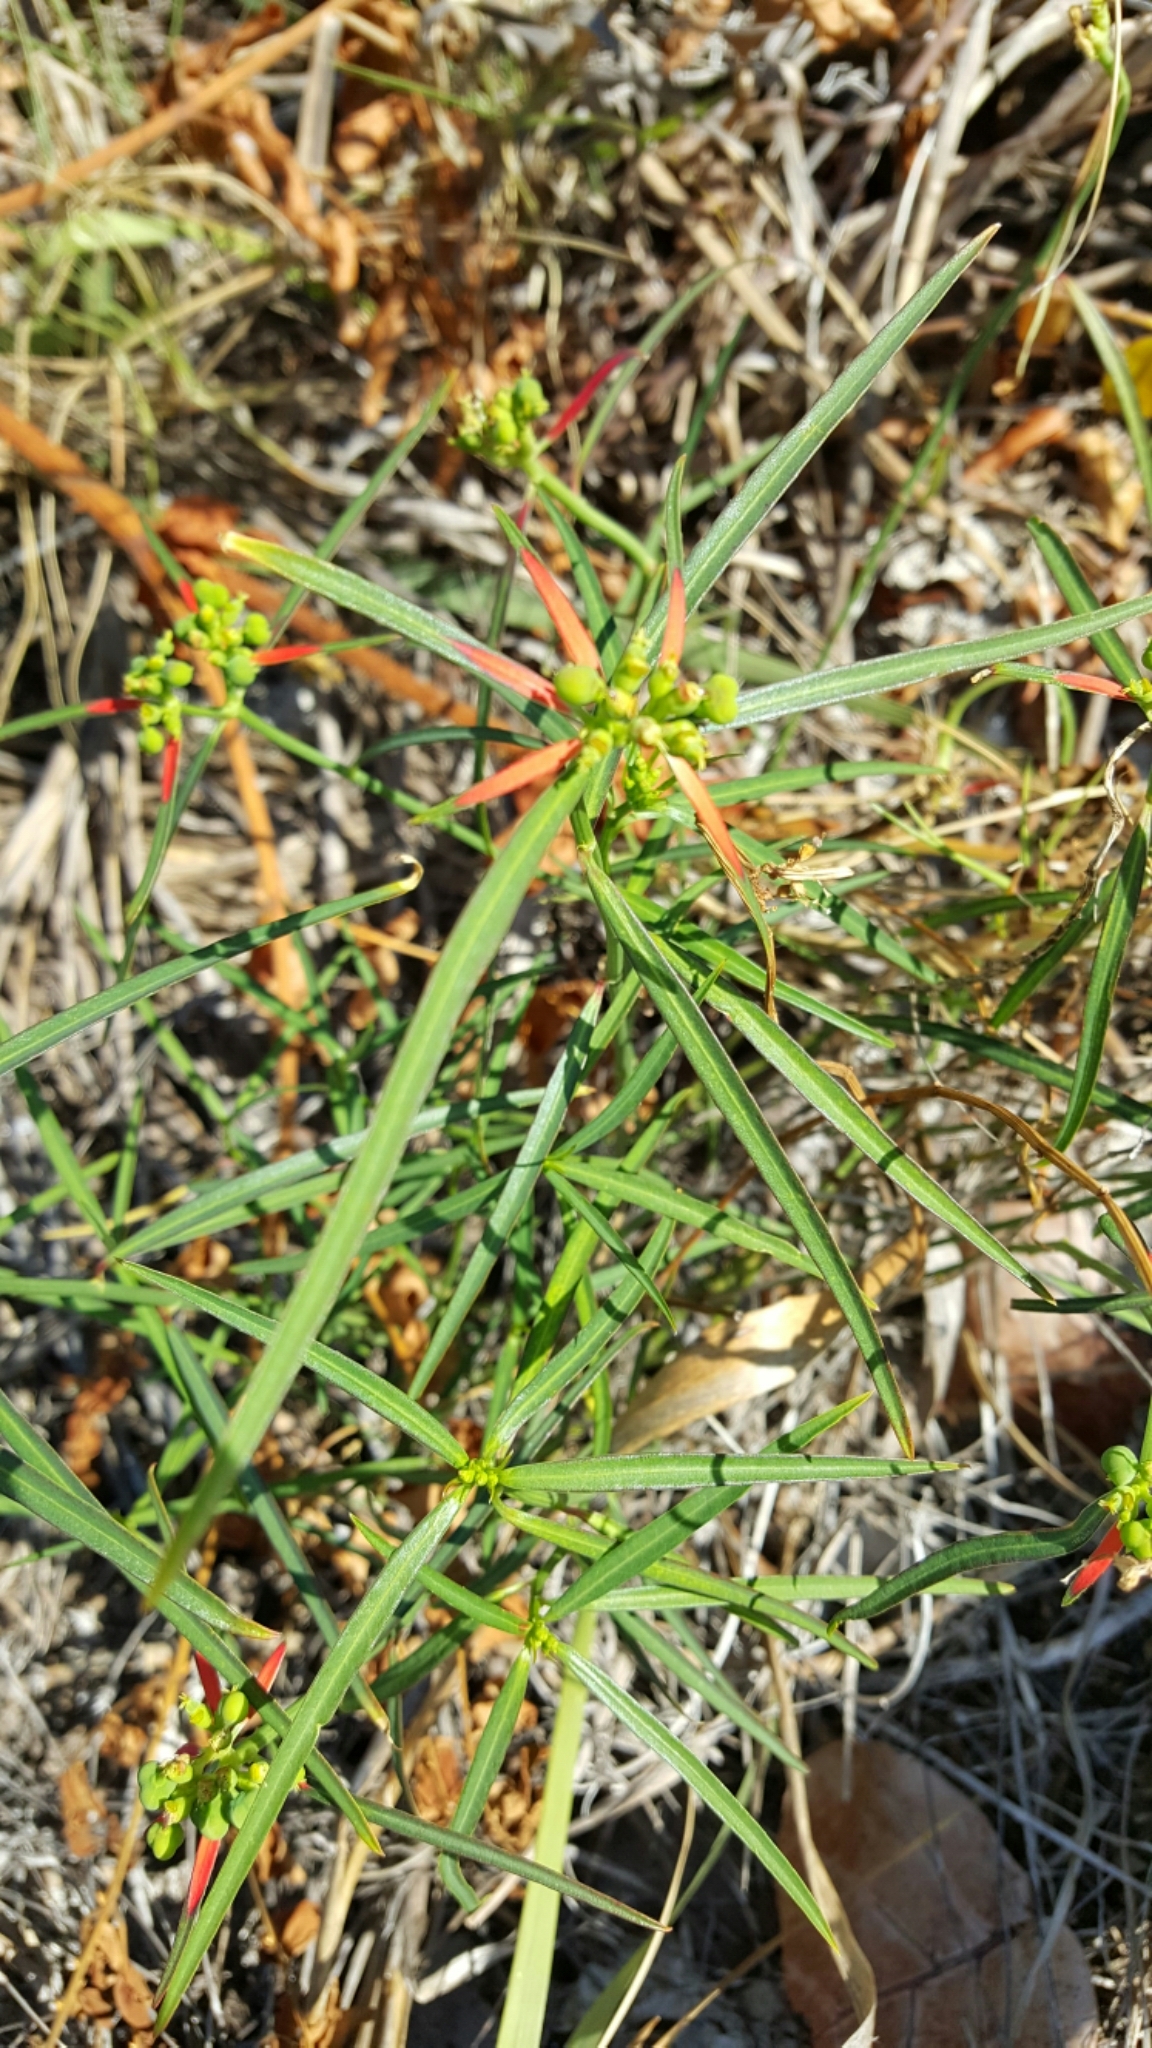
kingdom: Plantae
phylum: Tracheophyta
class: Magnoliopsida
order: Malpighiales
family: Euphorbiaceae
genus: Euphorbia
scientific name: Euphorbia heterophylla
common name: Mexican fireplant
